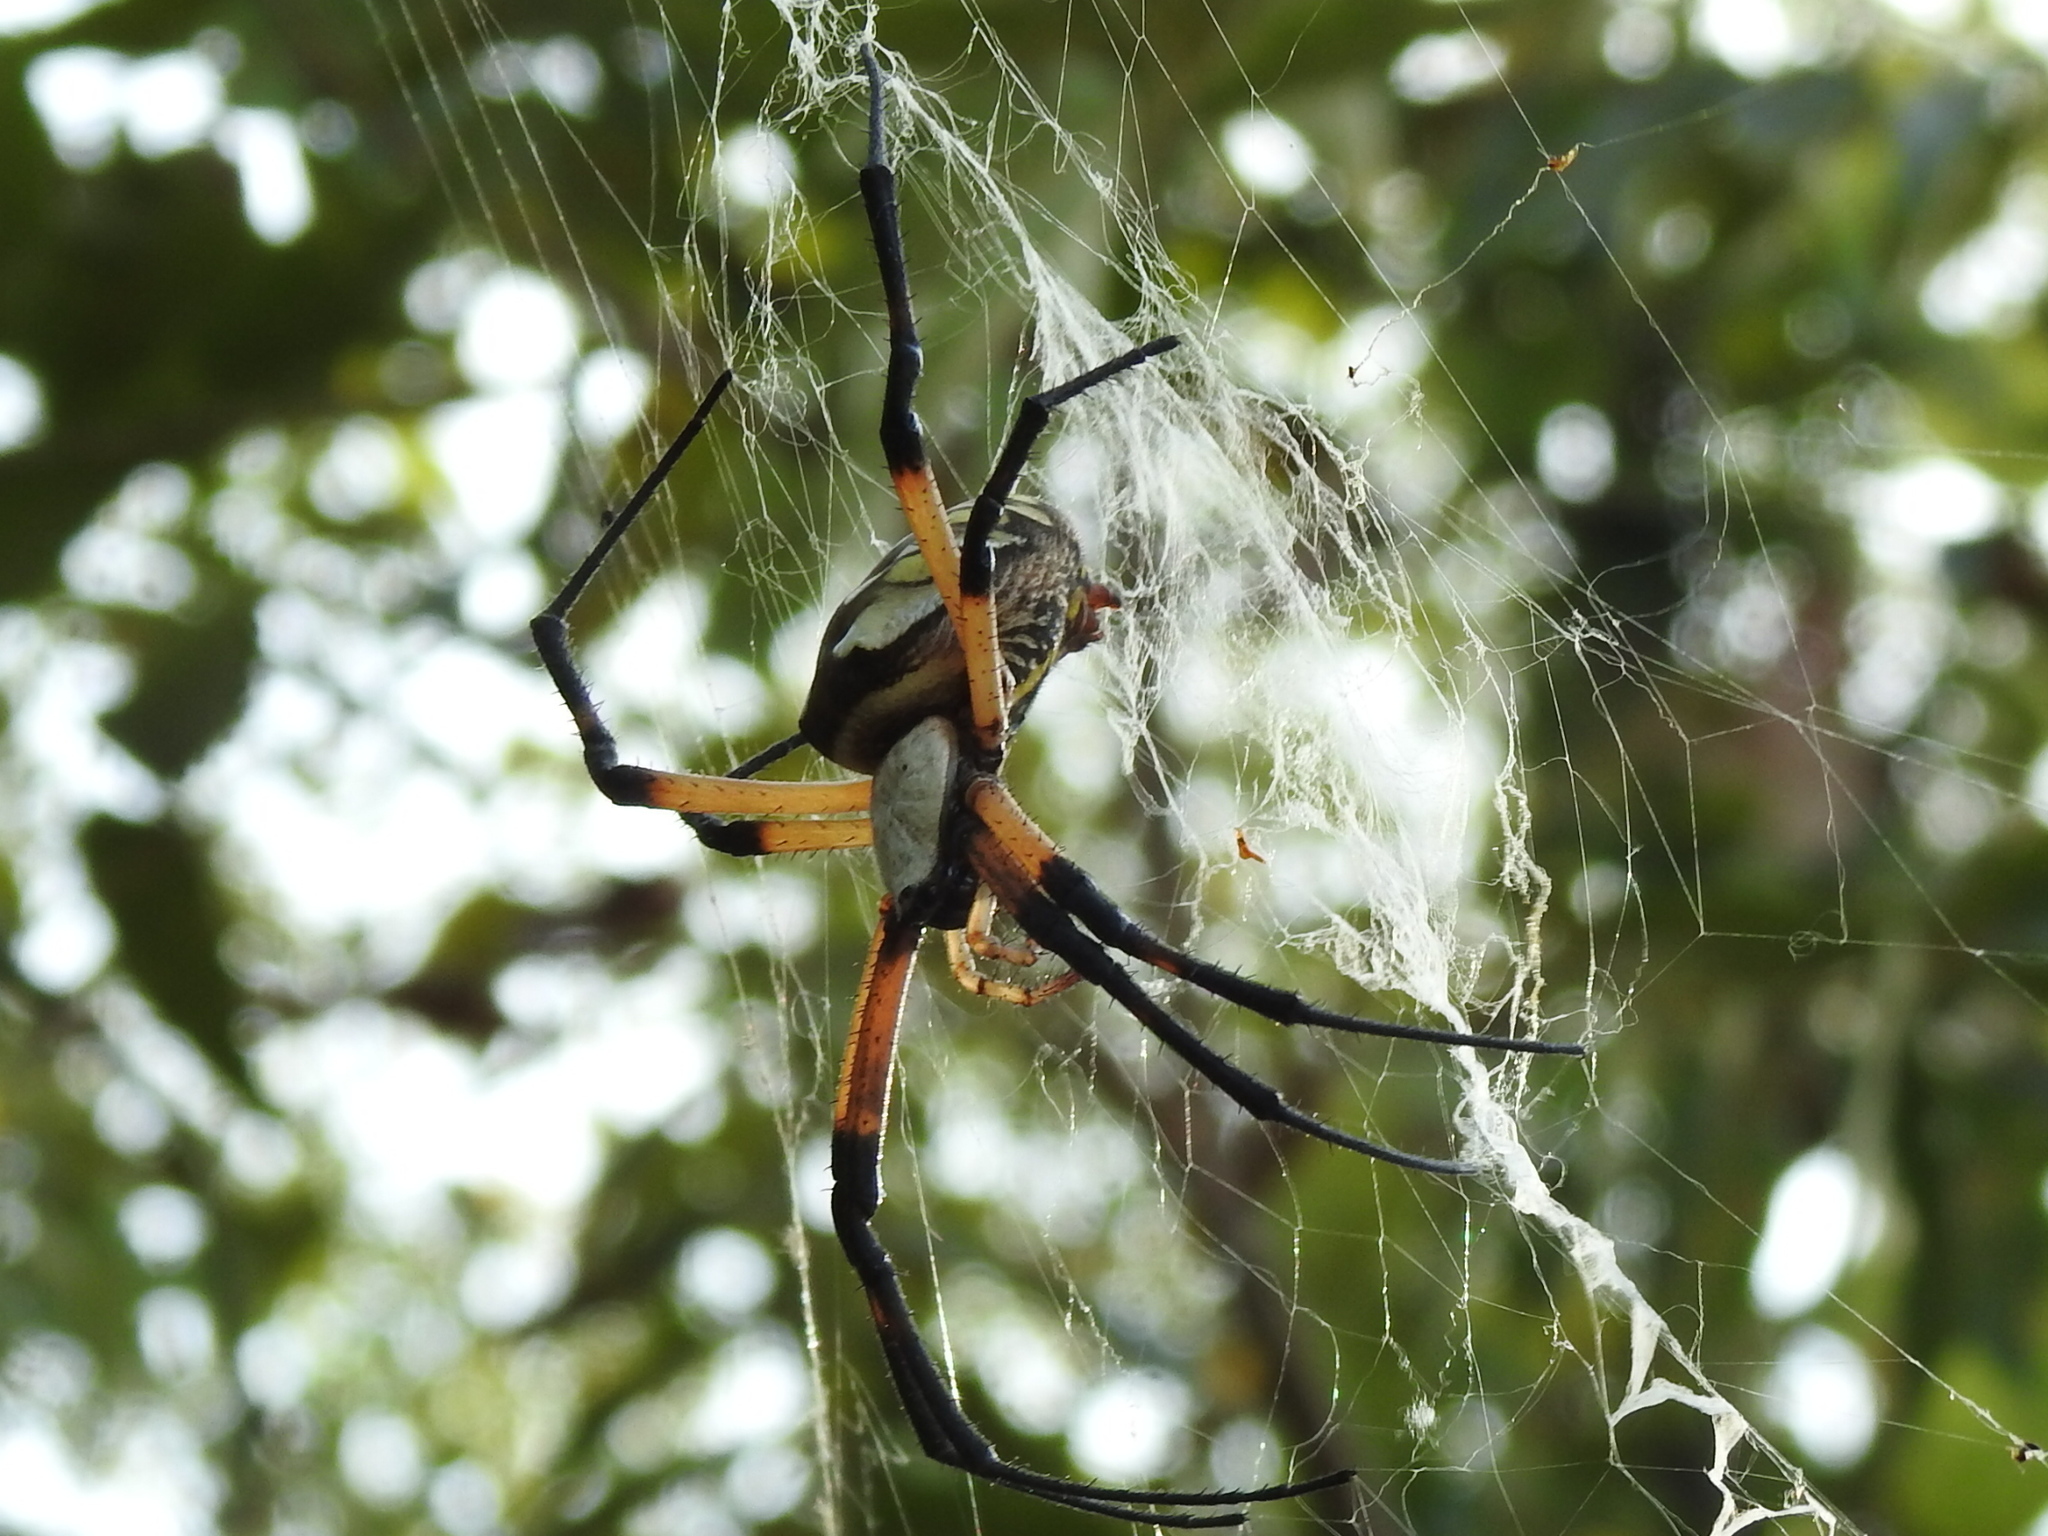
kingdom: Animalia
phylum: Arthropoda
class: Arachnida
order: Araneae
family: Araneidae
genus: Argiope
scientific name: Argiope aurantia
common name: Orb weavers
